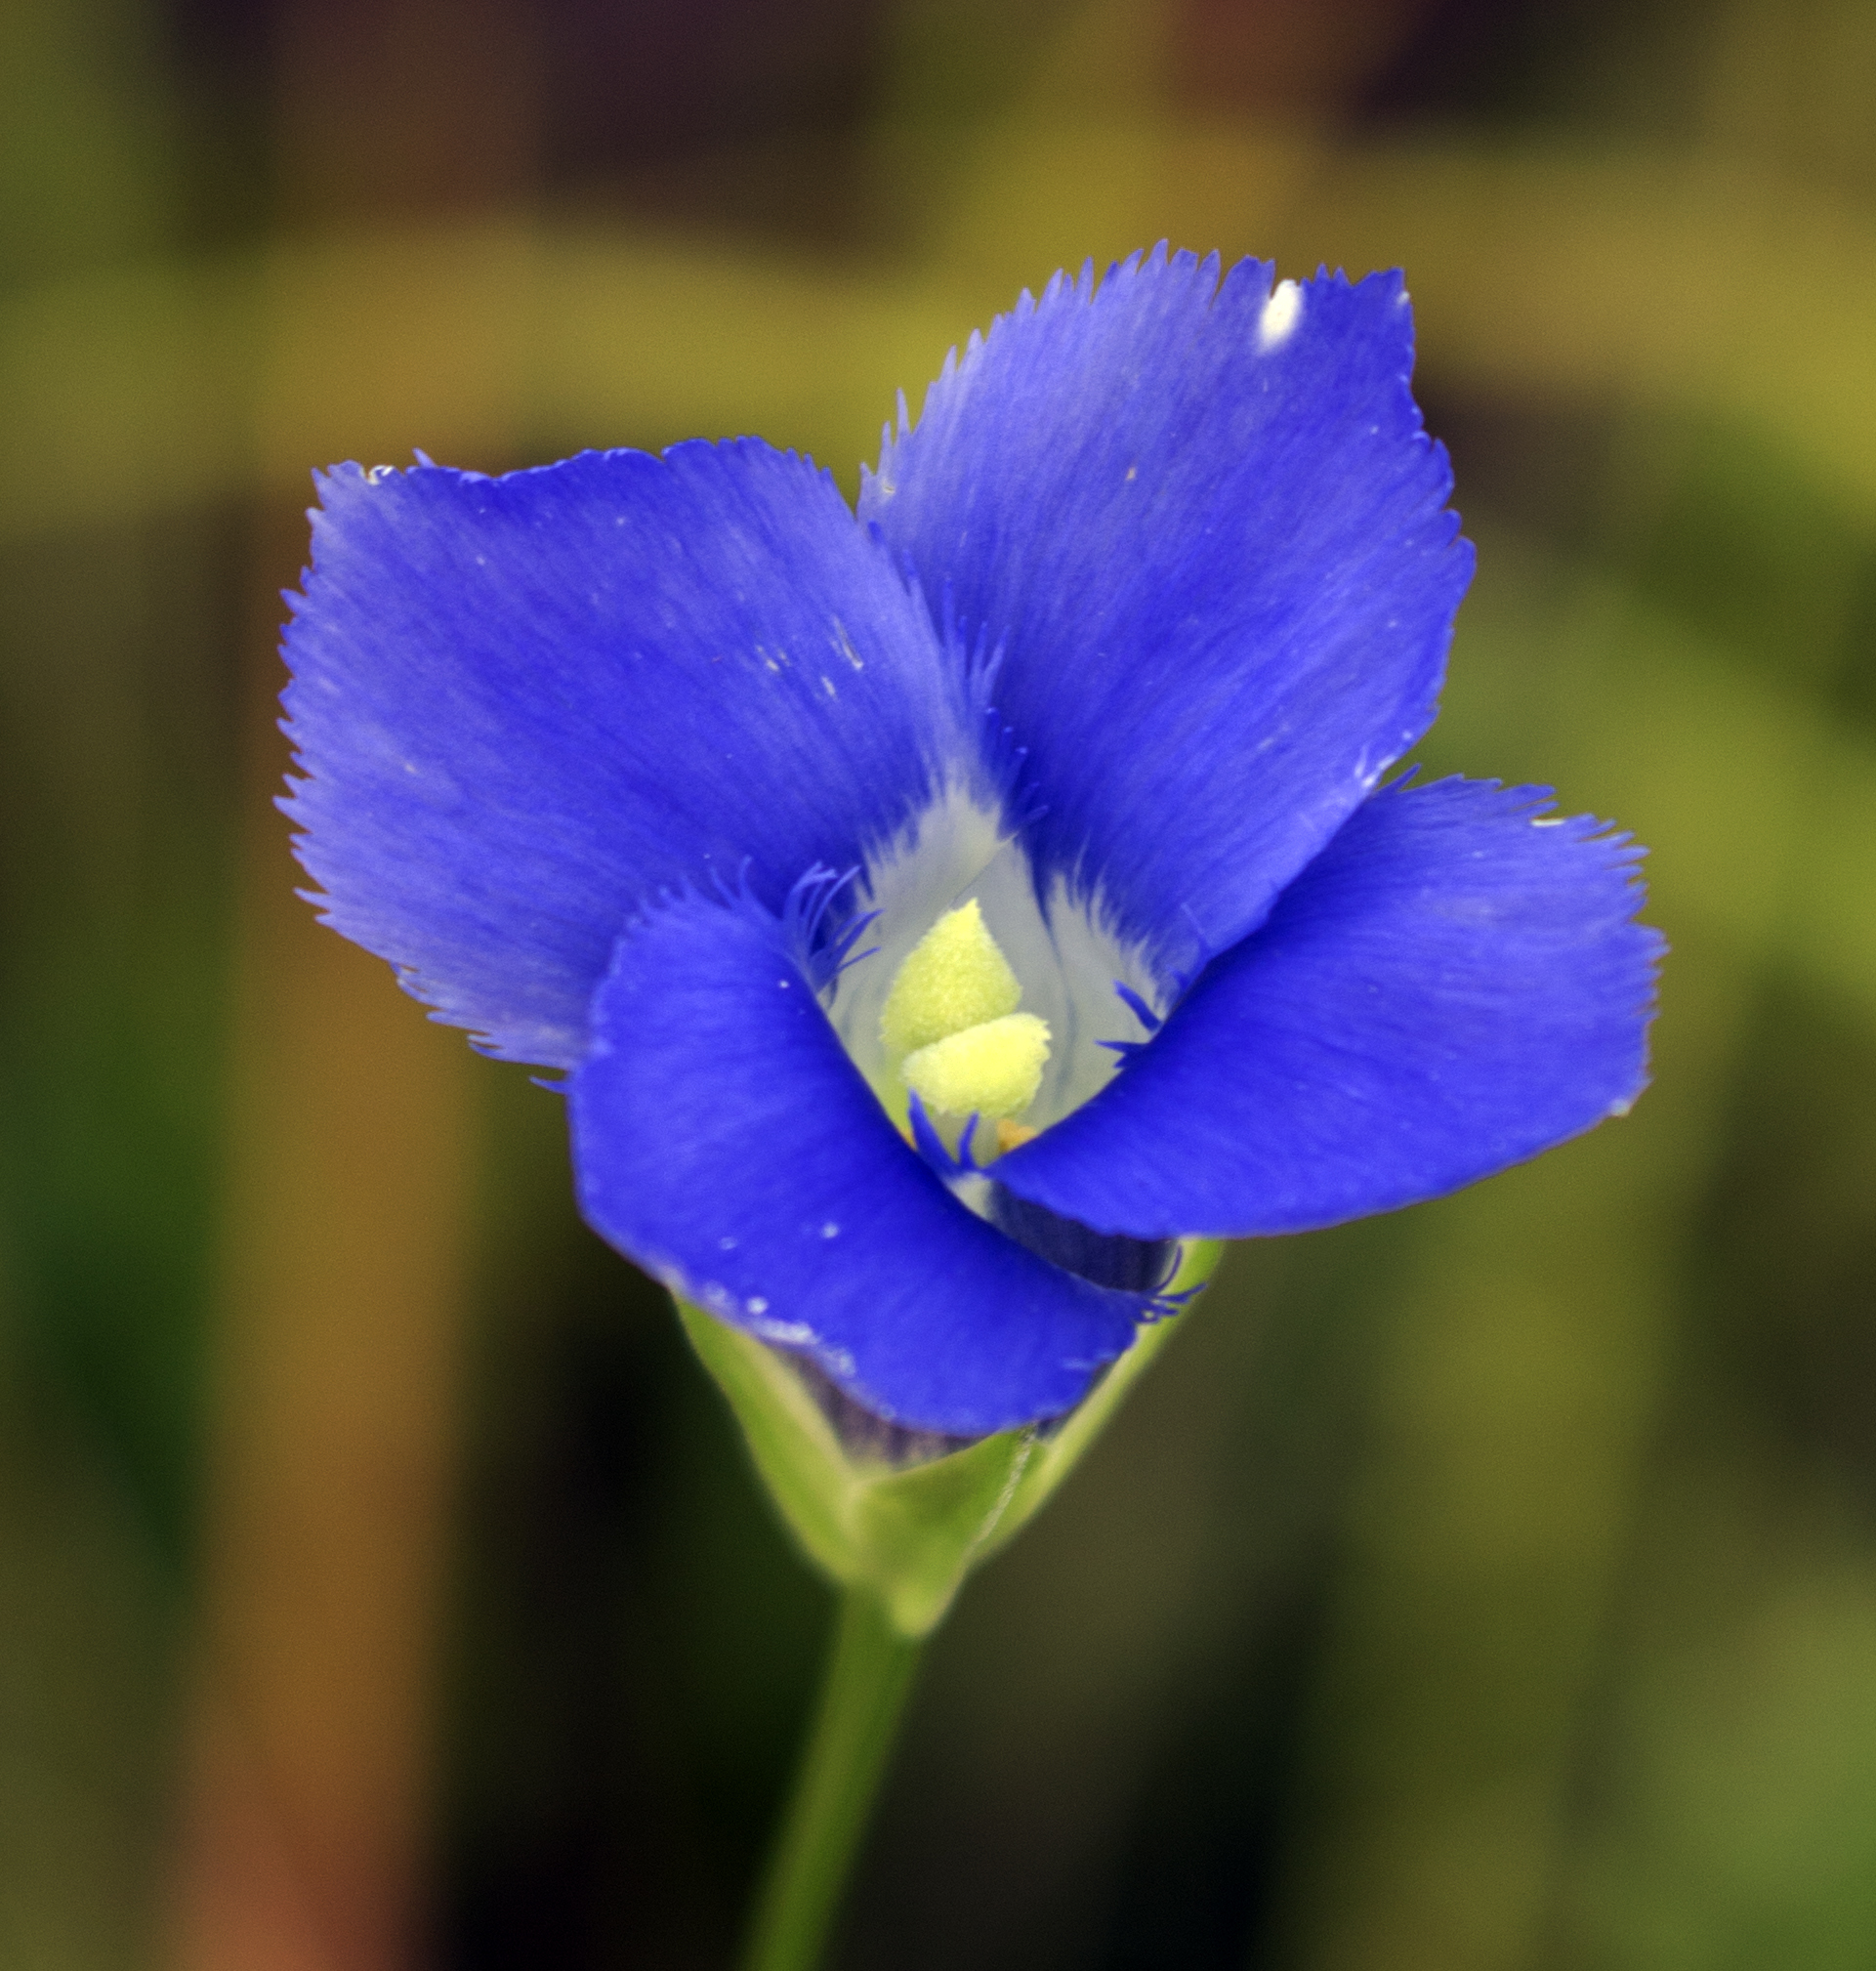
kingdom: Plantae
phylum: Tracheophyta
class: Magnoliopsida
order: Gentianales
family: Gentianaceae
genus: Gentianopsis
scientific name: Gentianopsis virgata
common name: Lesser fringed-gentian
